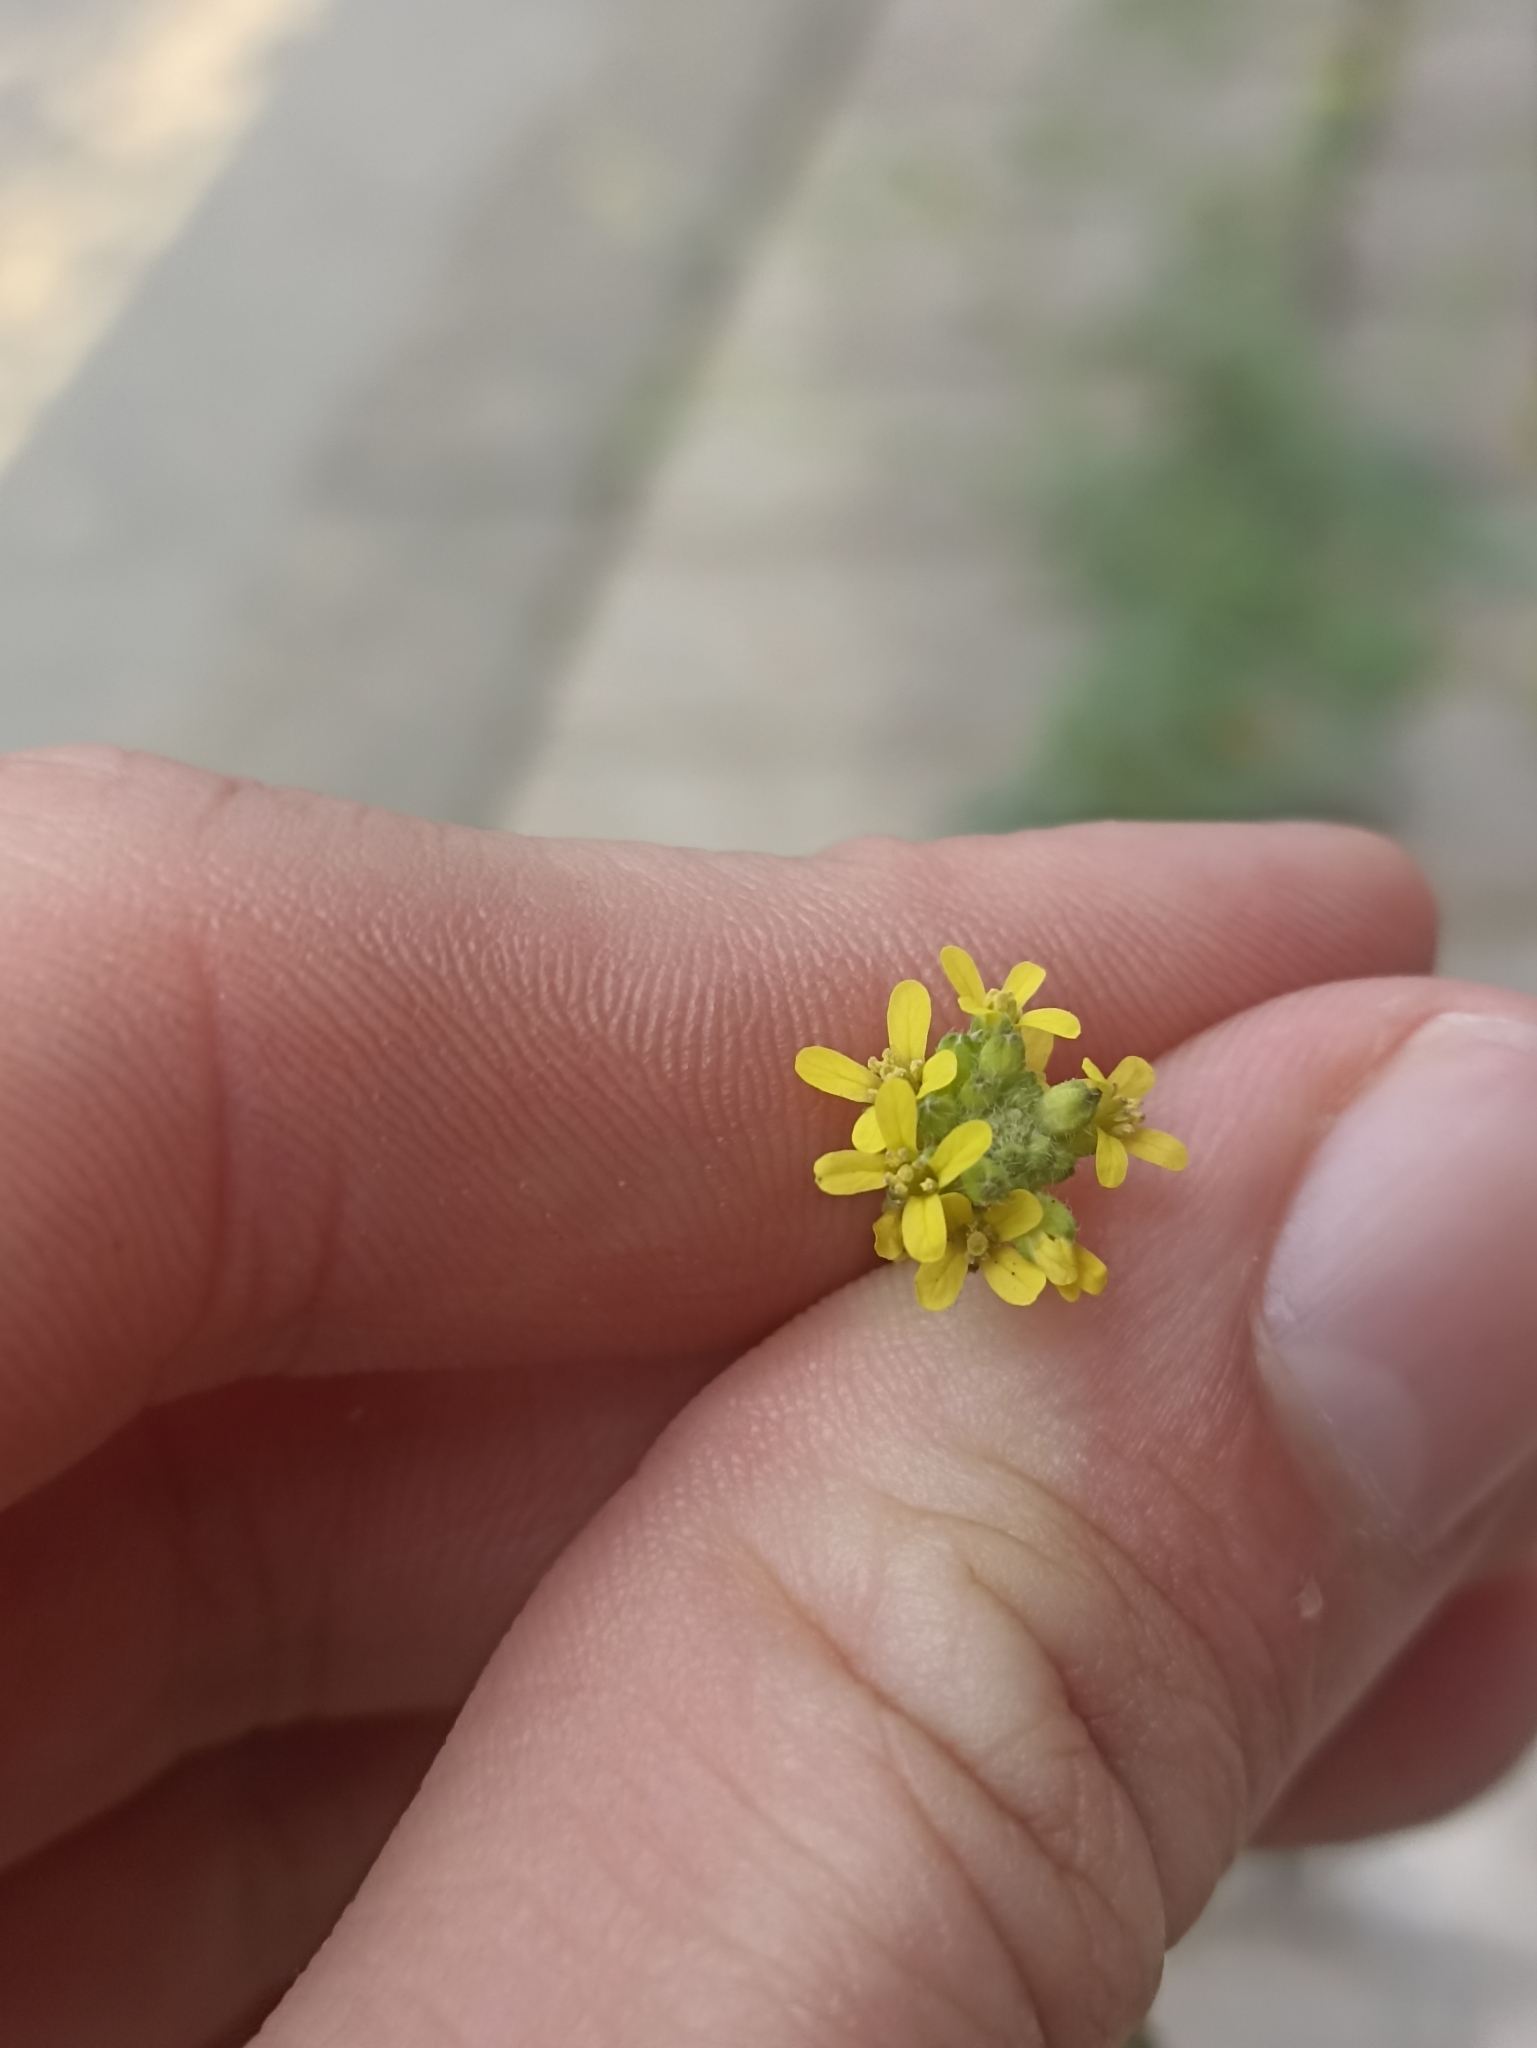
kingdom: Plantae
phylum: Tracheophyta
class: Magnoliopsida
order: Brassicales
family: Brassicaceae
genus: Sisymbrium
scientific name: Sisymbrium officinale
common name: Hedge mustard
